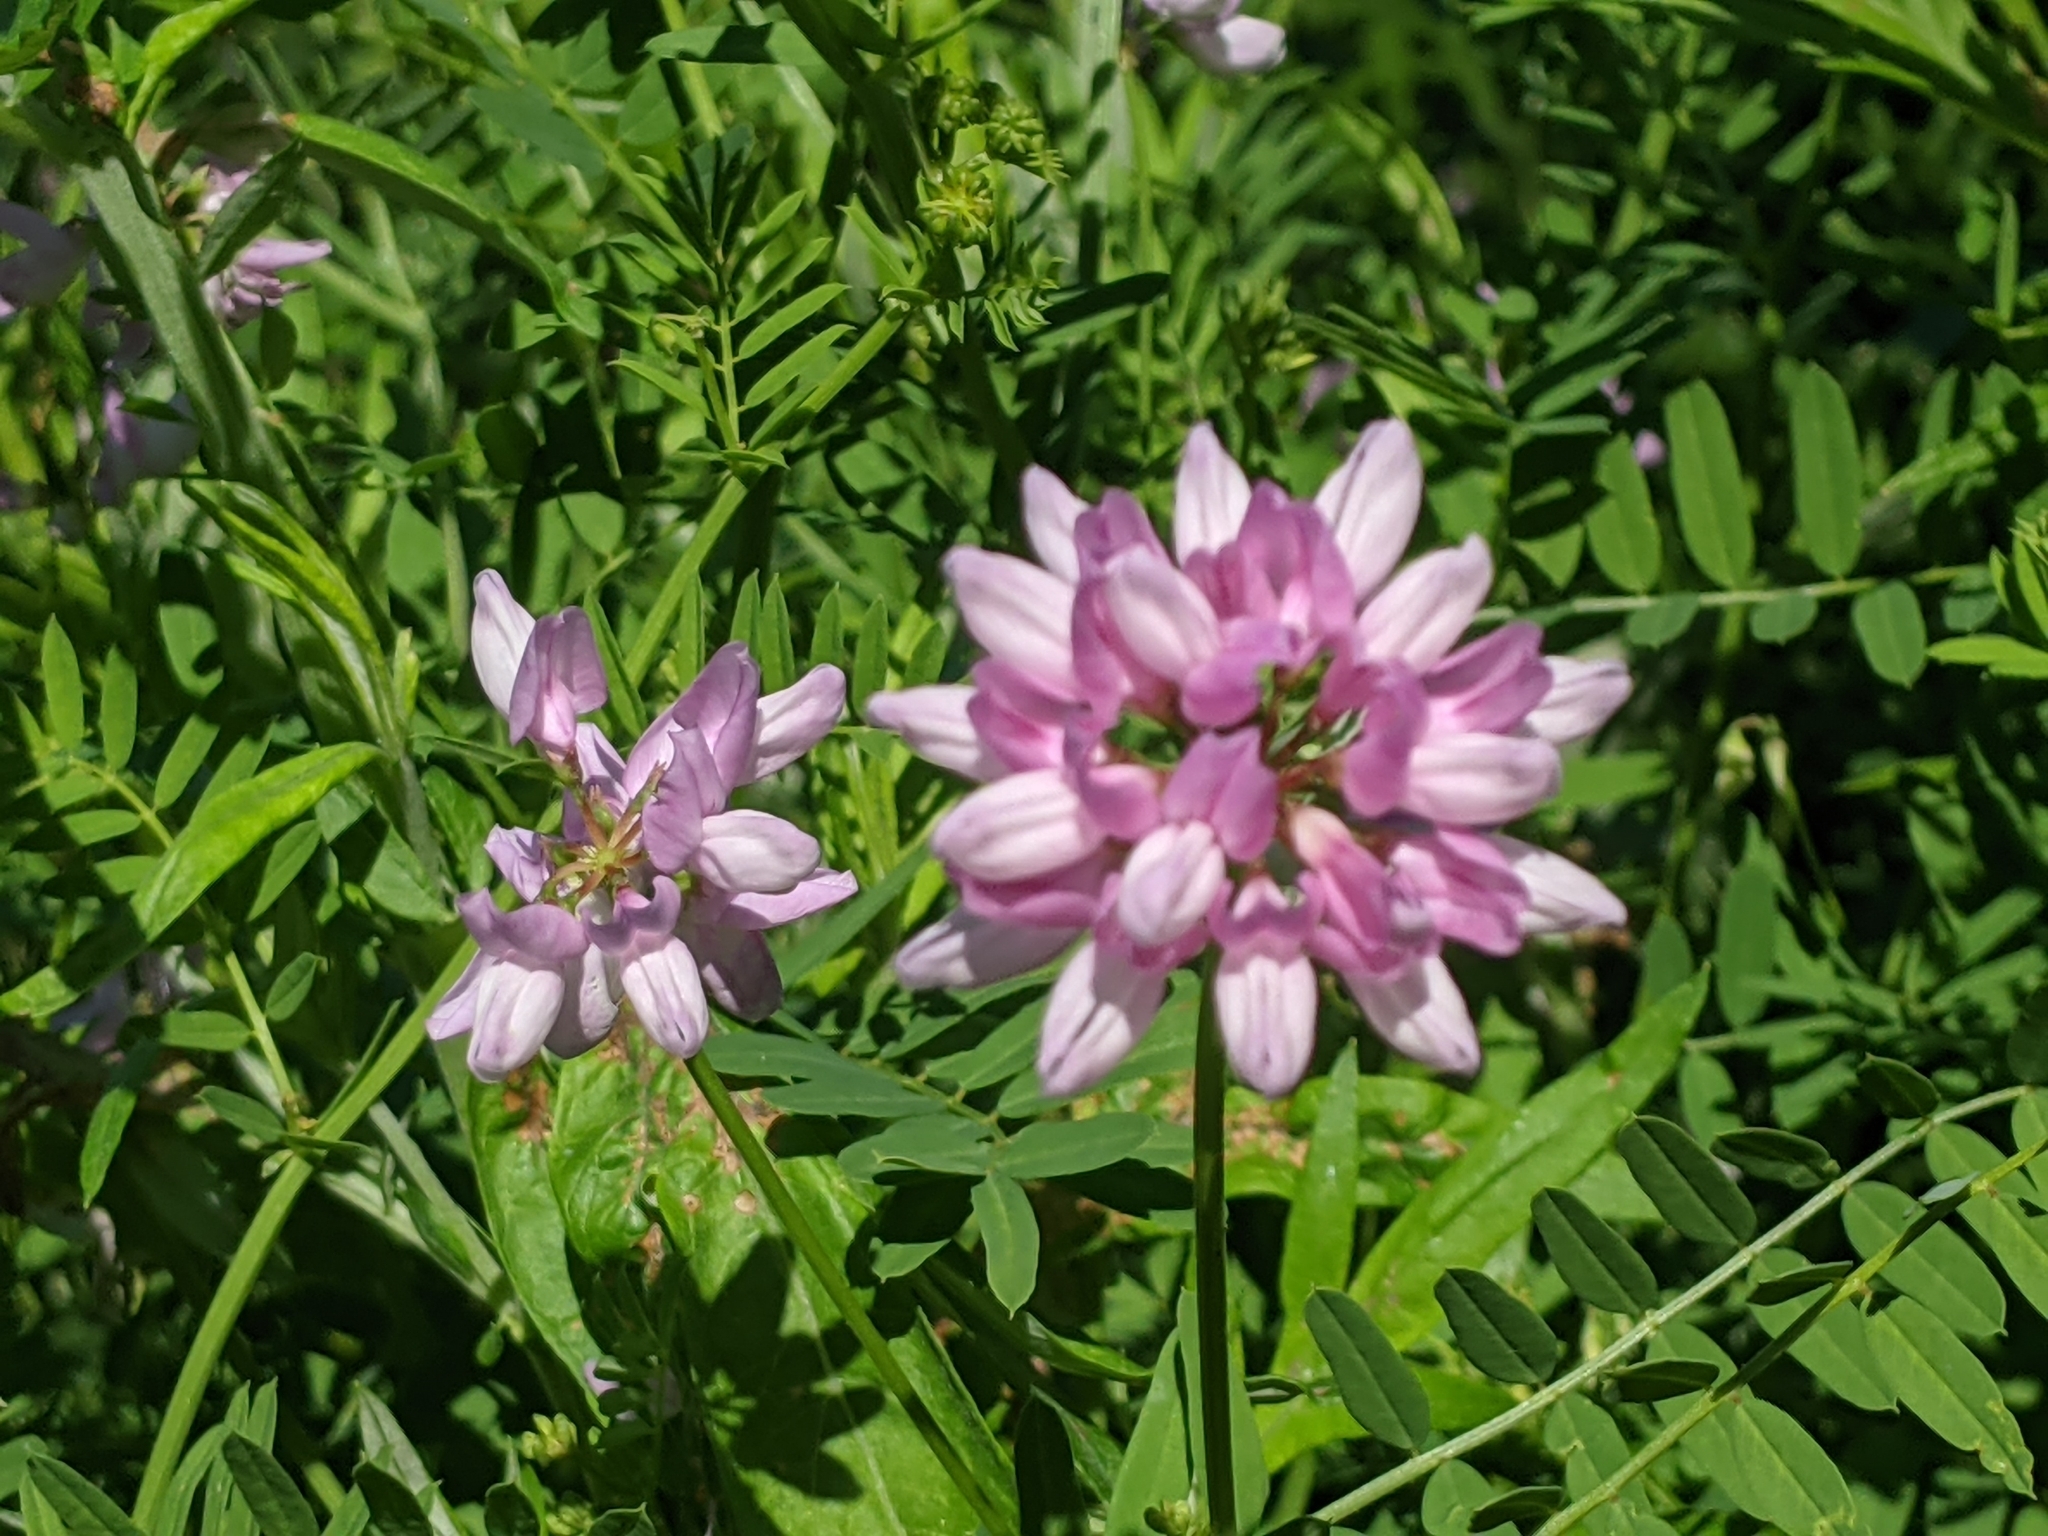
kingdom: Plantae
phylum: Tracheophyta
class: Magnoliopsida
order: Fabales
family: Fabaceae
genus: Coronilla
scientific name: Coronilla varia
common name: Crownvetch
